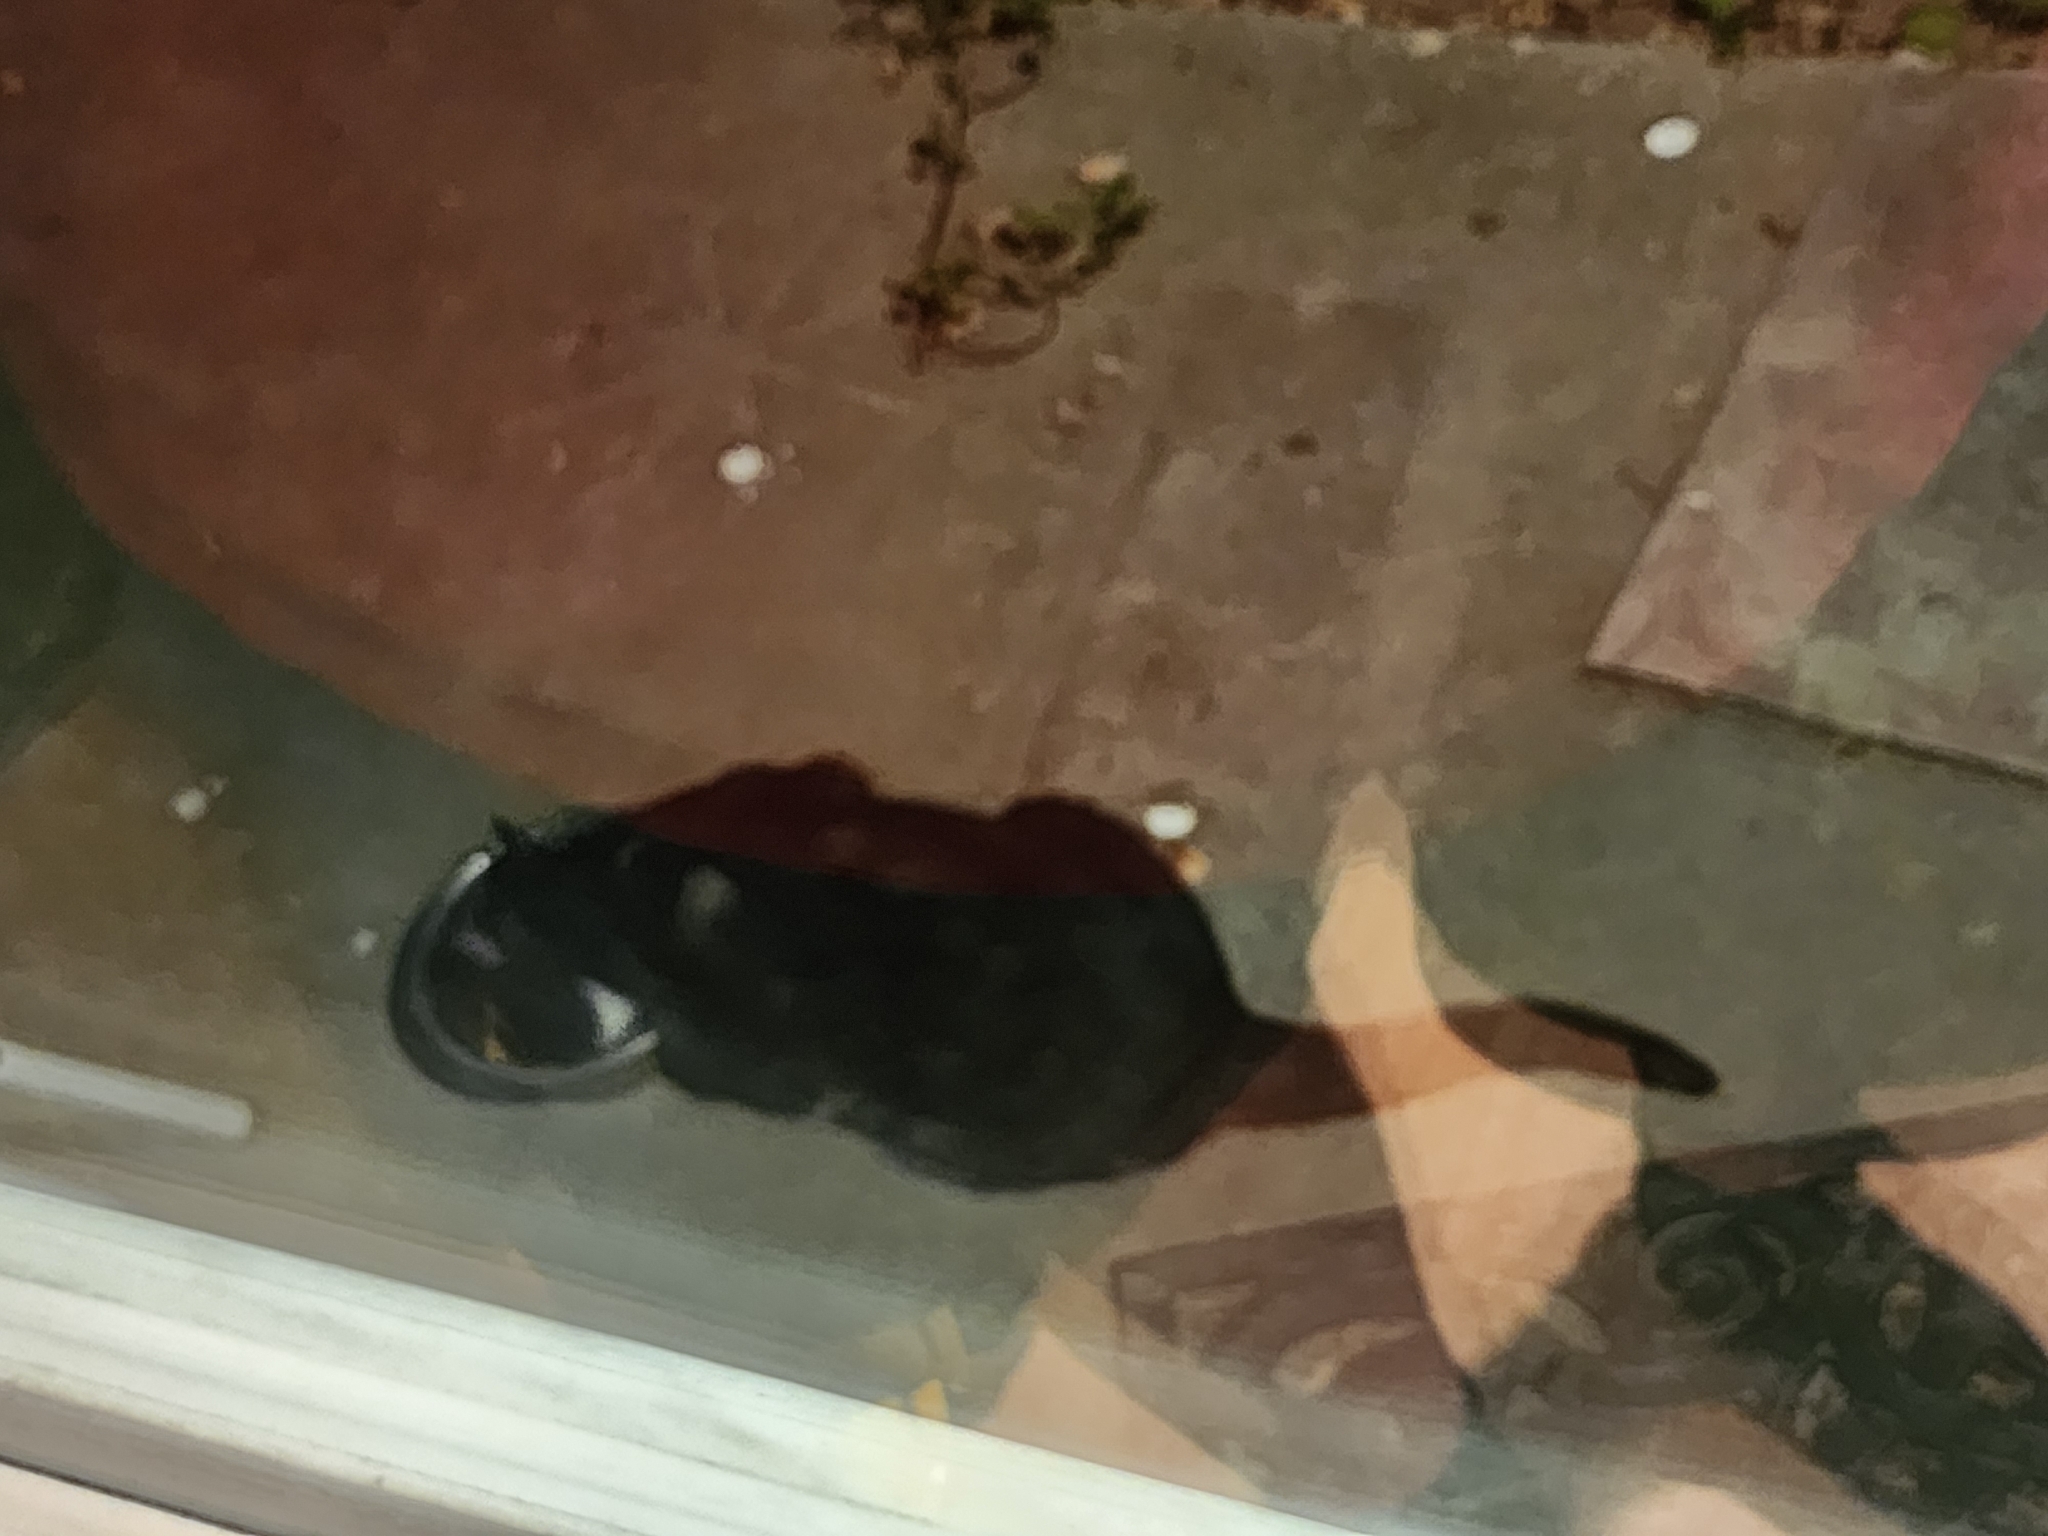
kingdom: Animalia
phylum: Chordata
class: Mammalia
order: Carnivora
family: Felidae
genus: Felis
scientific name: Felis catus
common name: Domestic cat
